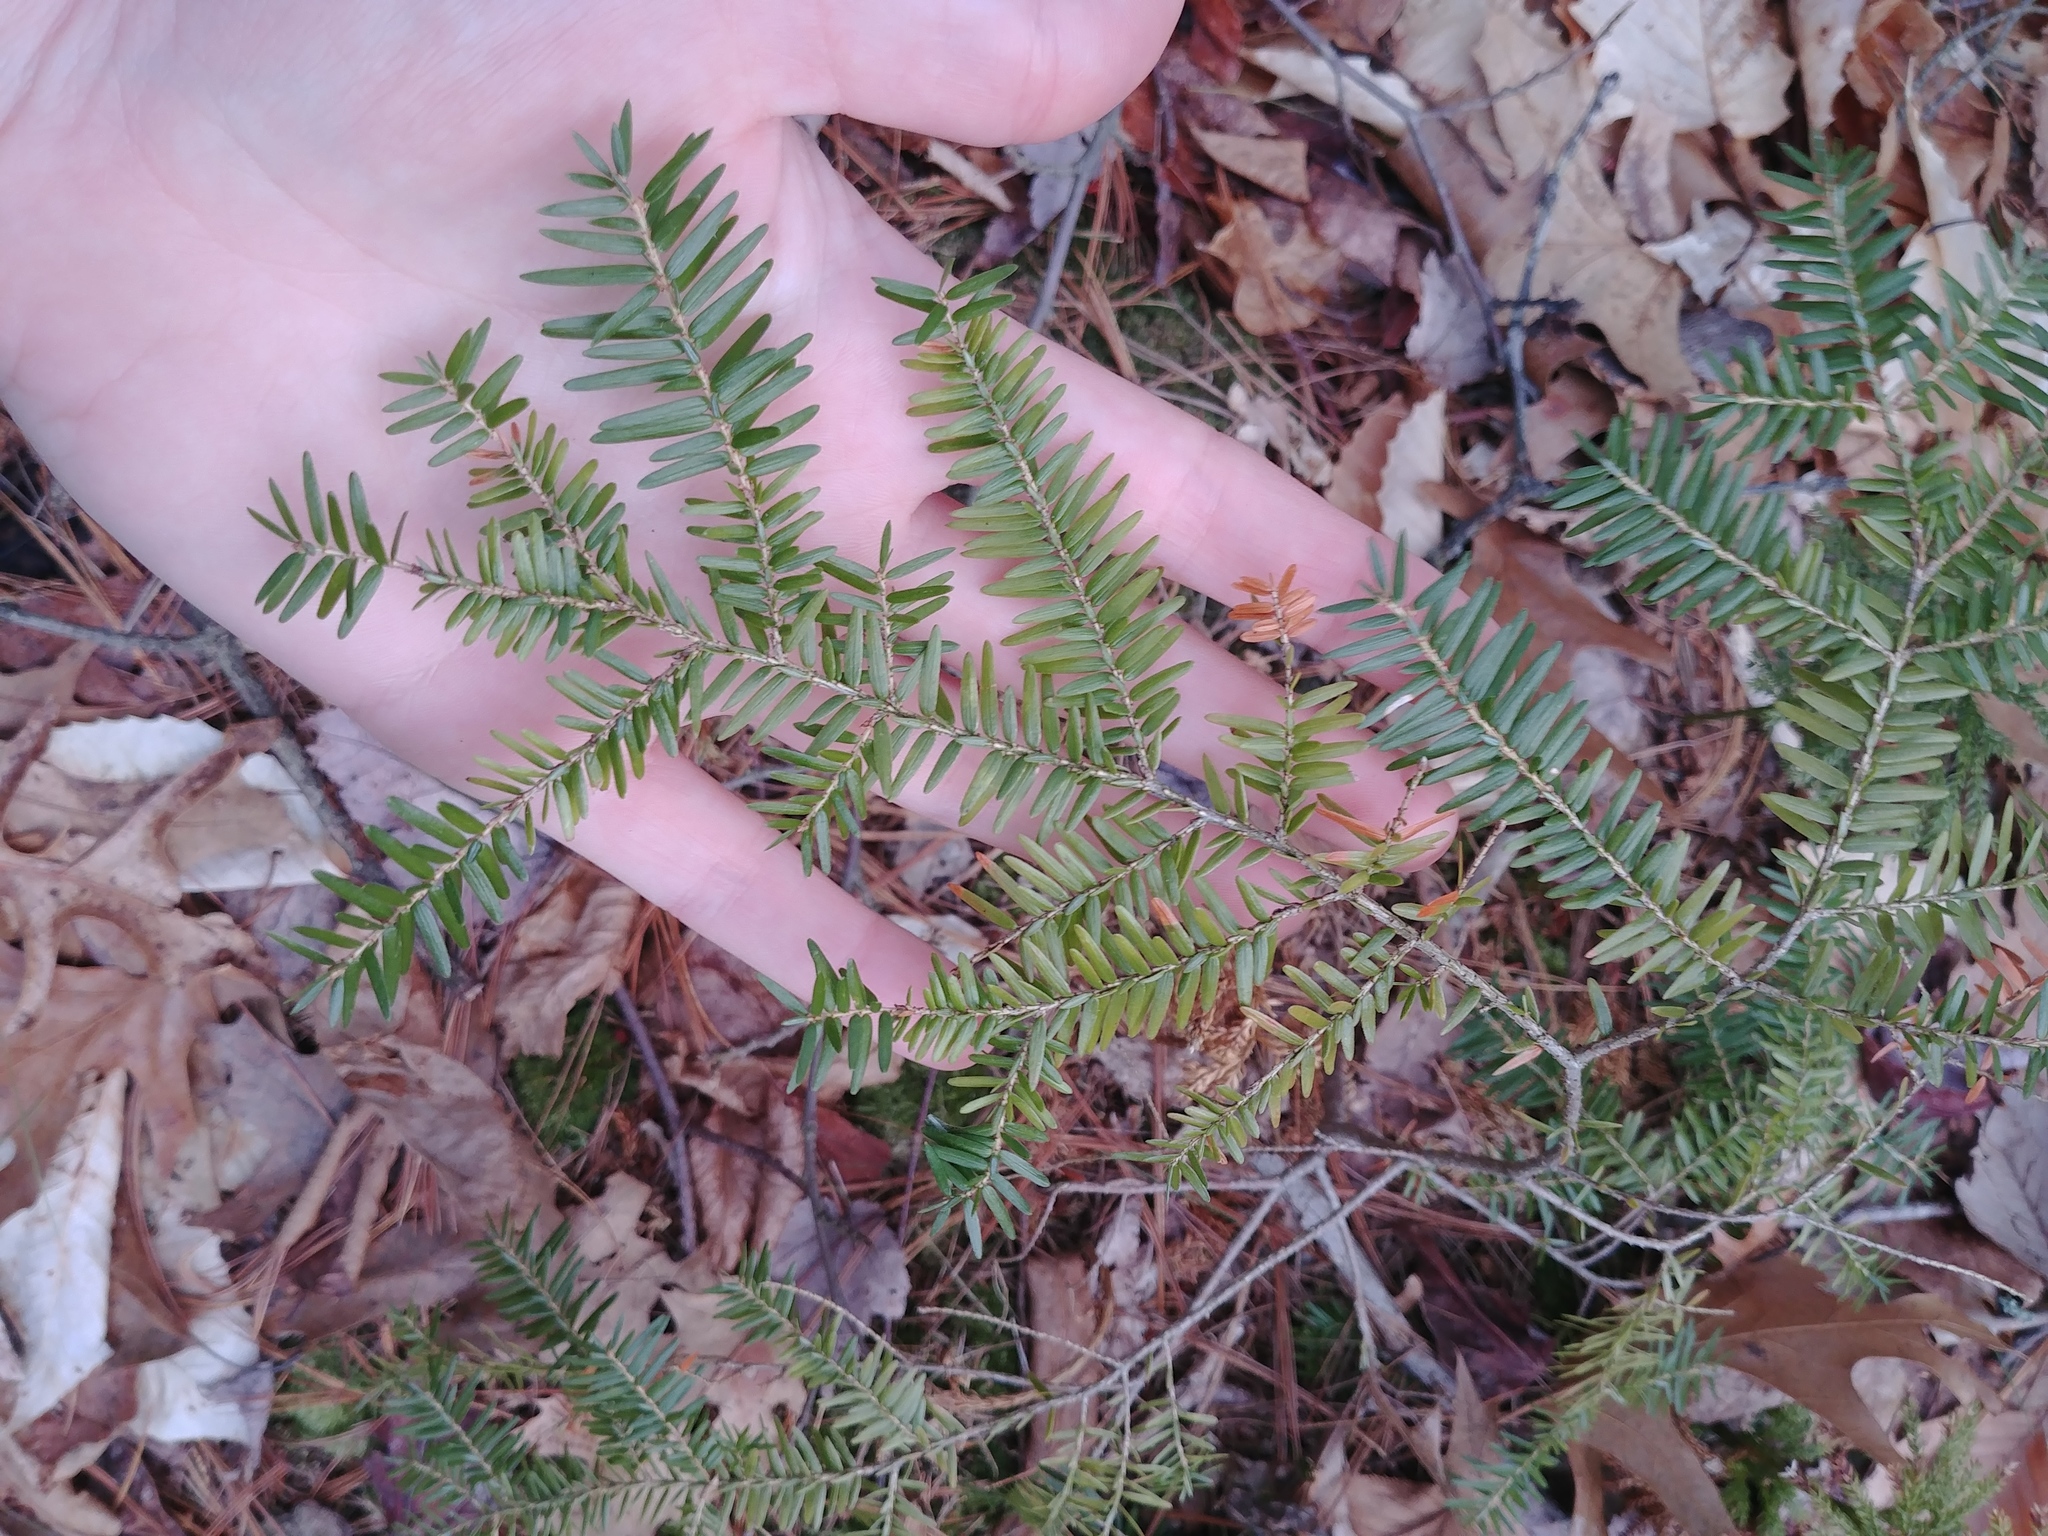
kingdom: Plantae
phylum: Tracheophyta
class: Pinopsida
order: Pinales
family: Pinaceae
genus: Tsuga
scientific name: Tsuga canadensis
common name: Eastern hemlock
